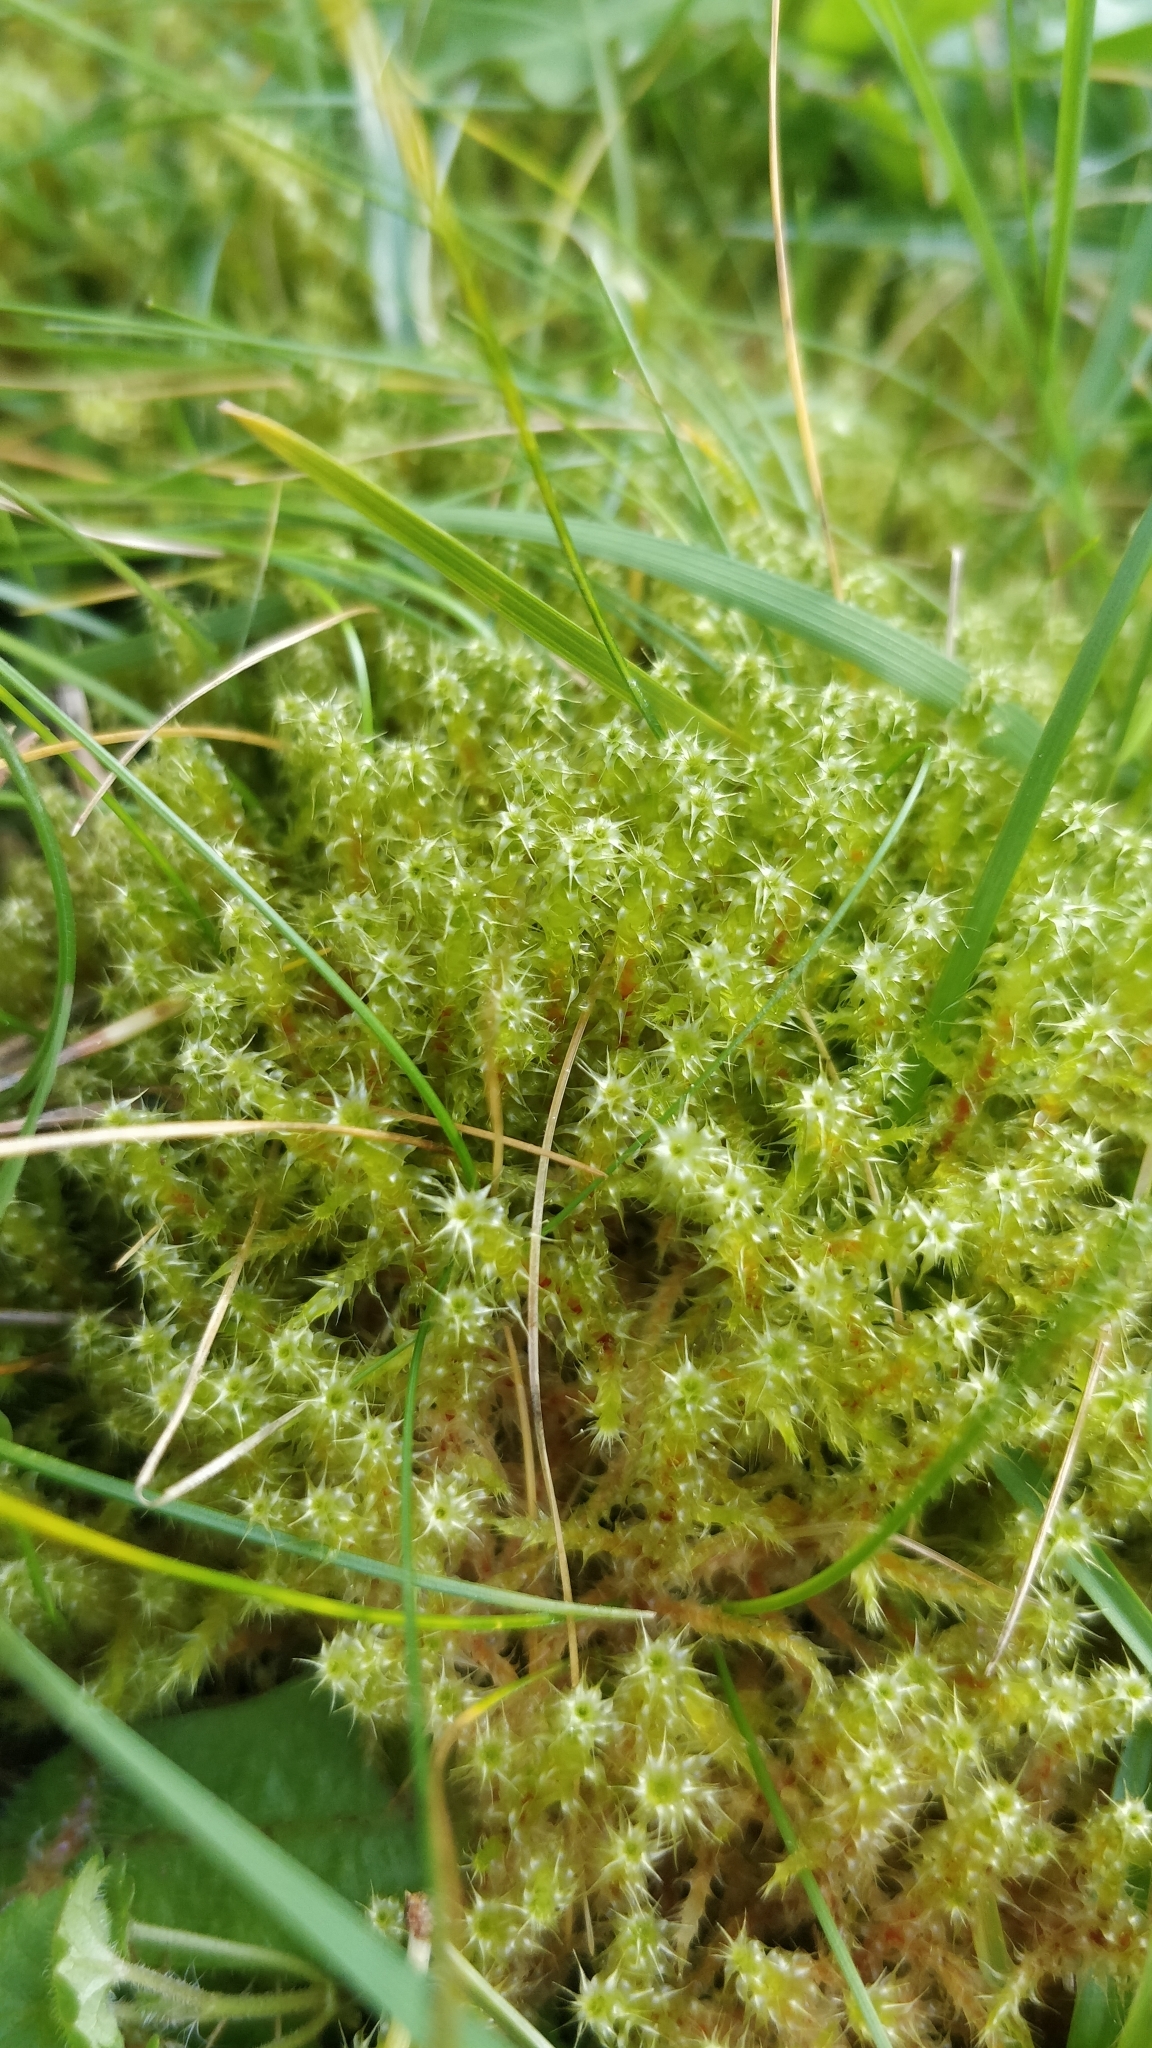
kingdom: Plantae
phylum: Bryophyta
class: Bryopsida
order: Hypnales
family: Hylocomiaceae
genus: Rhytidiadelphus
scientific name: Rhytidiadelphus squarrosus
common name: Springy turf-moss
